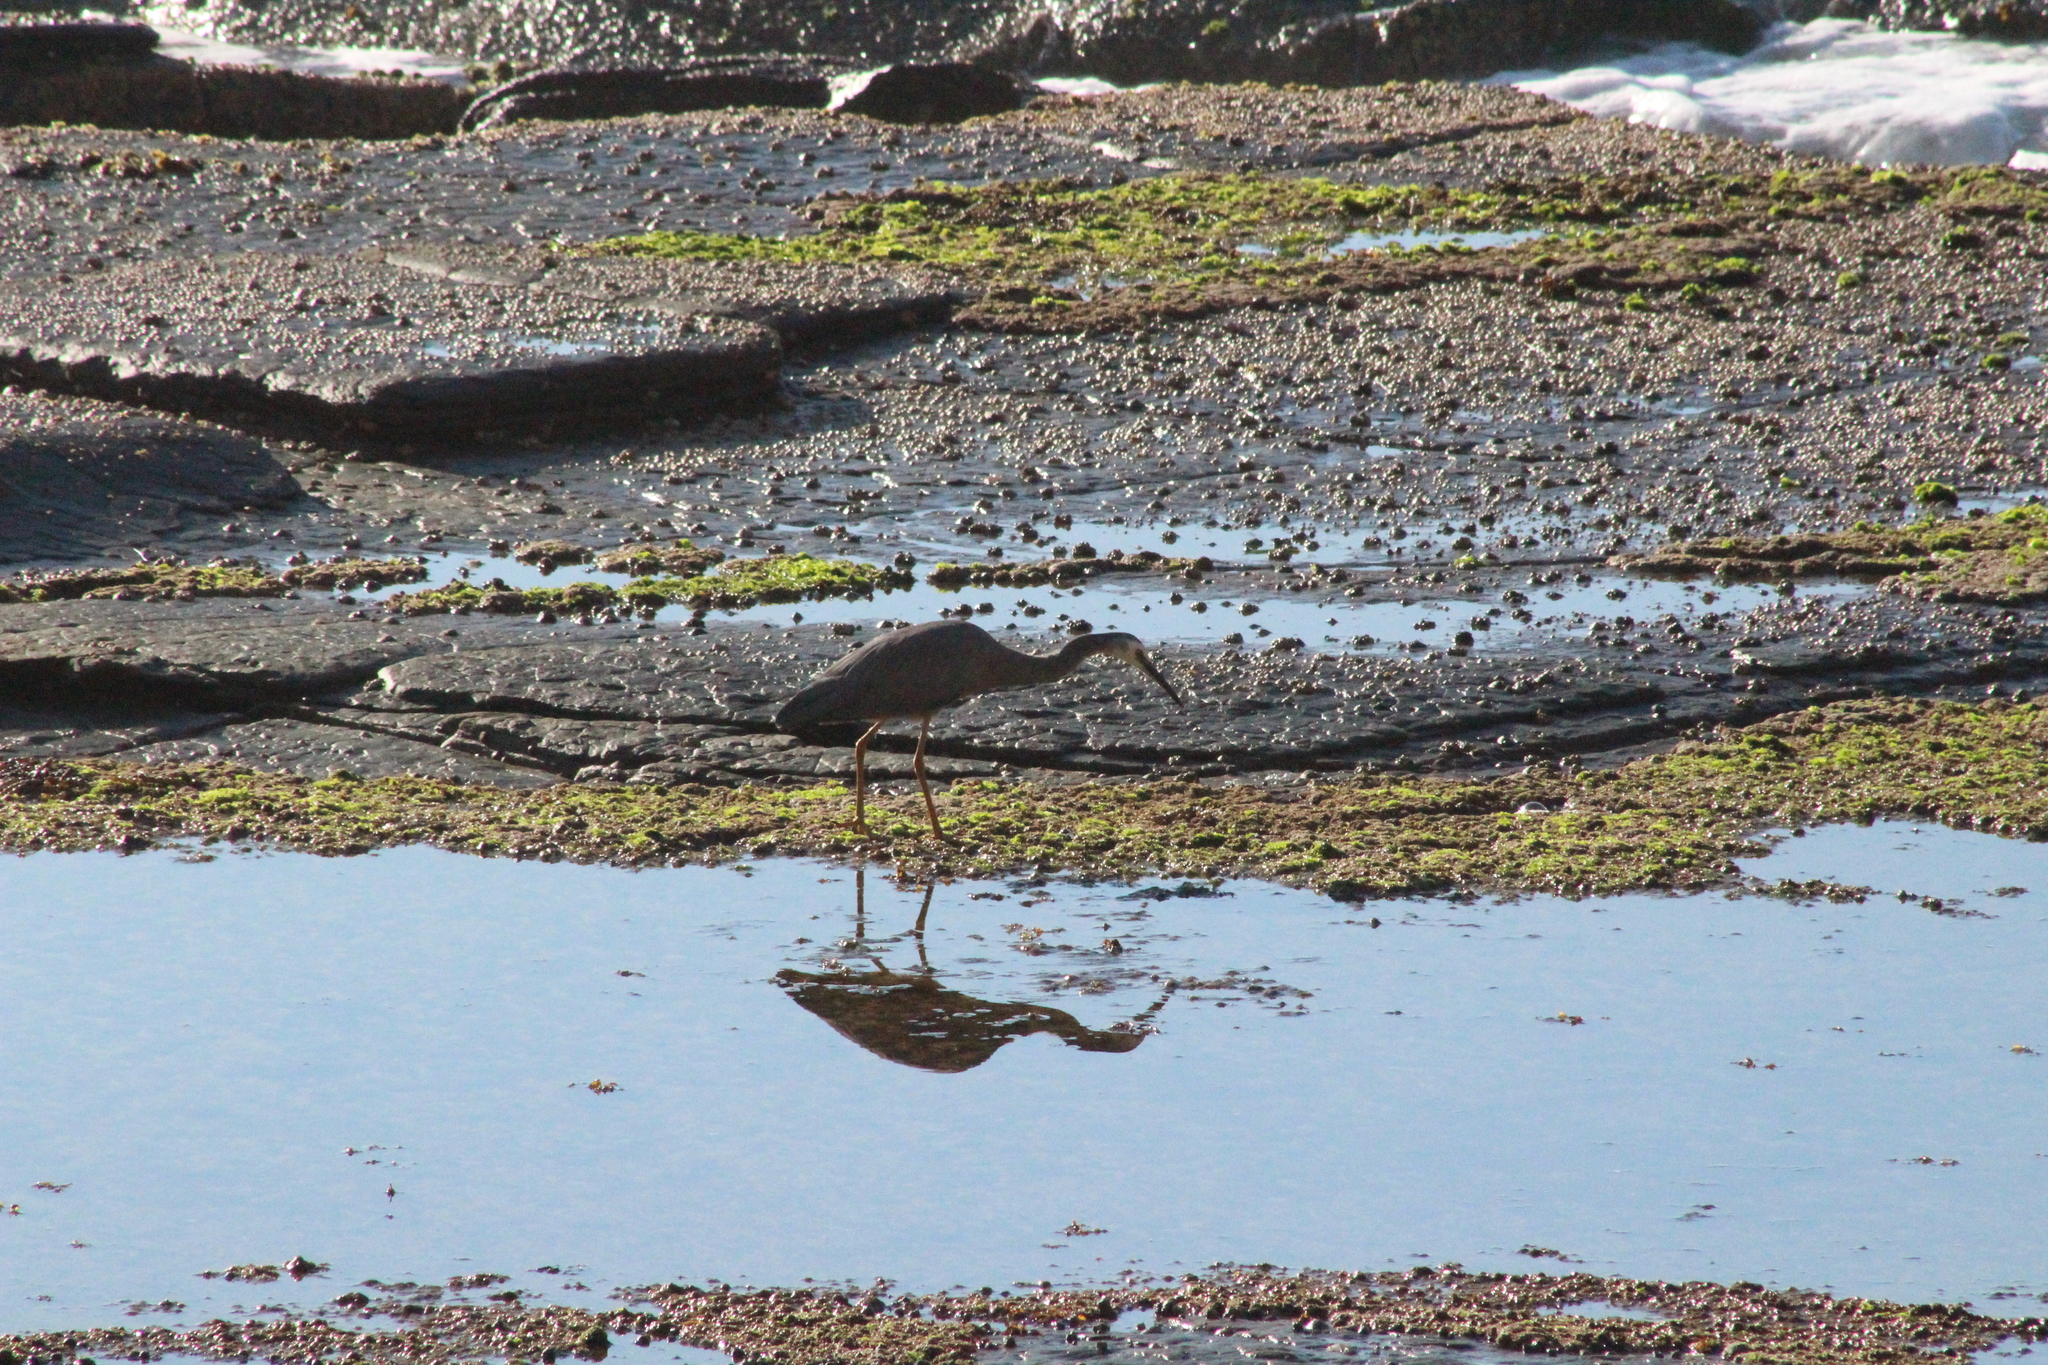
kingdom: Animalia
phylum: Chordata
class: Aves
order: Pelecaniformes
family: Ardeidae
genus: Egretta
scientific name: Egretta novaehollandiae
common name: White-faced heron
